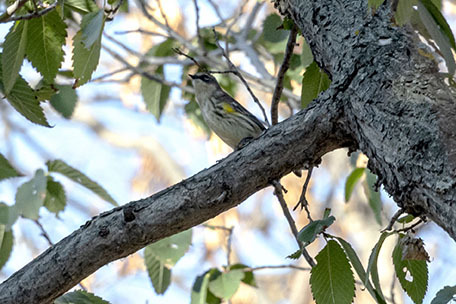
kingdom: Animalia
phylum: Chordata
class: Aves
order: Passeriformes
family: Parulidae
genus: Setophaga
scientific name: Setophaga coronata
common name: Myrtle warbler
